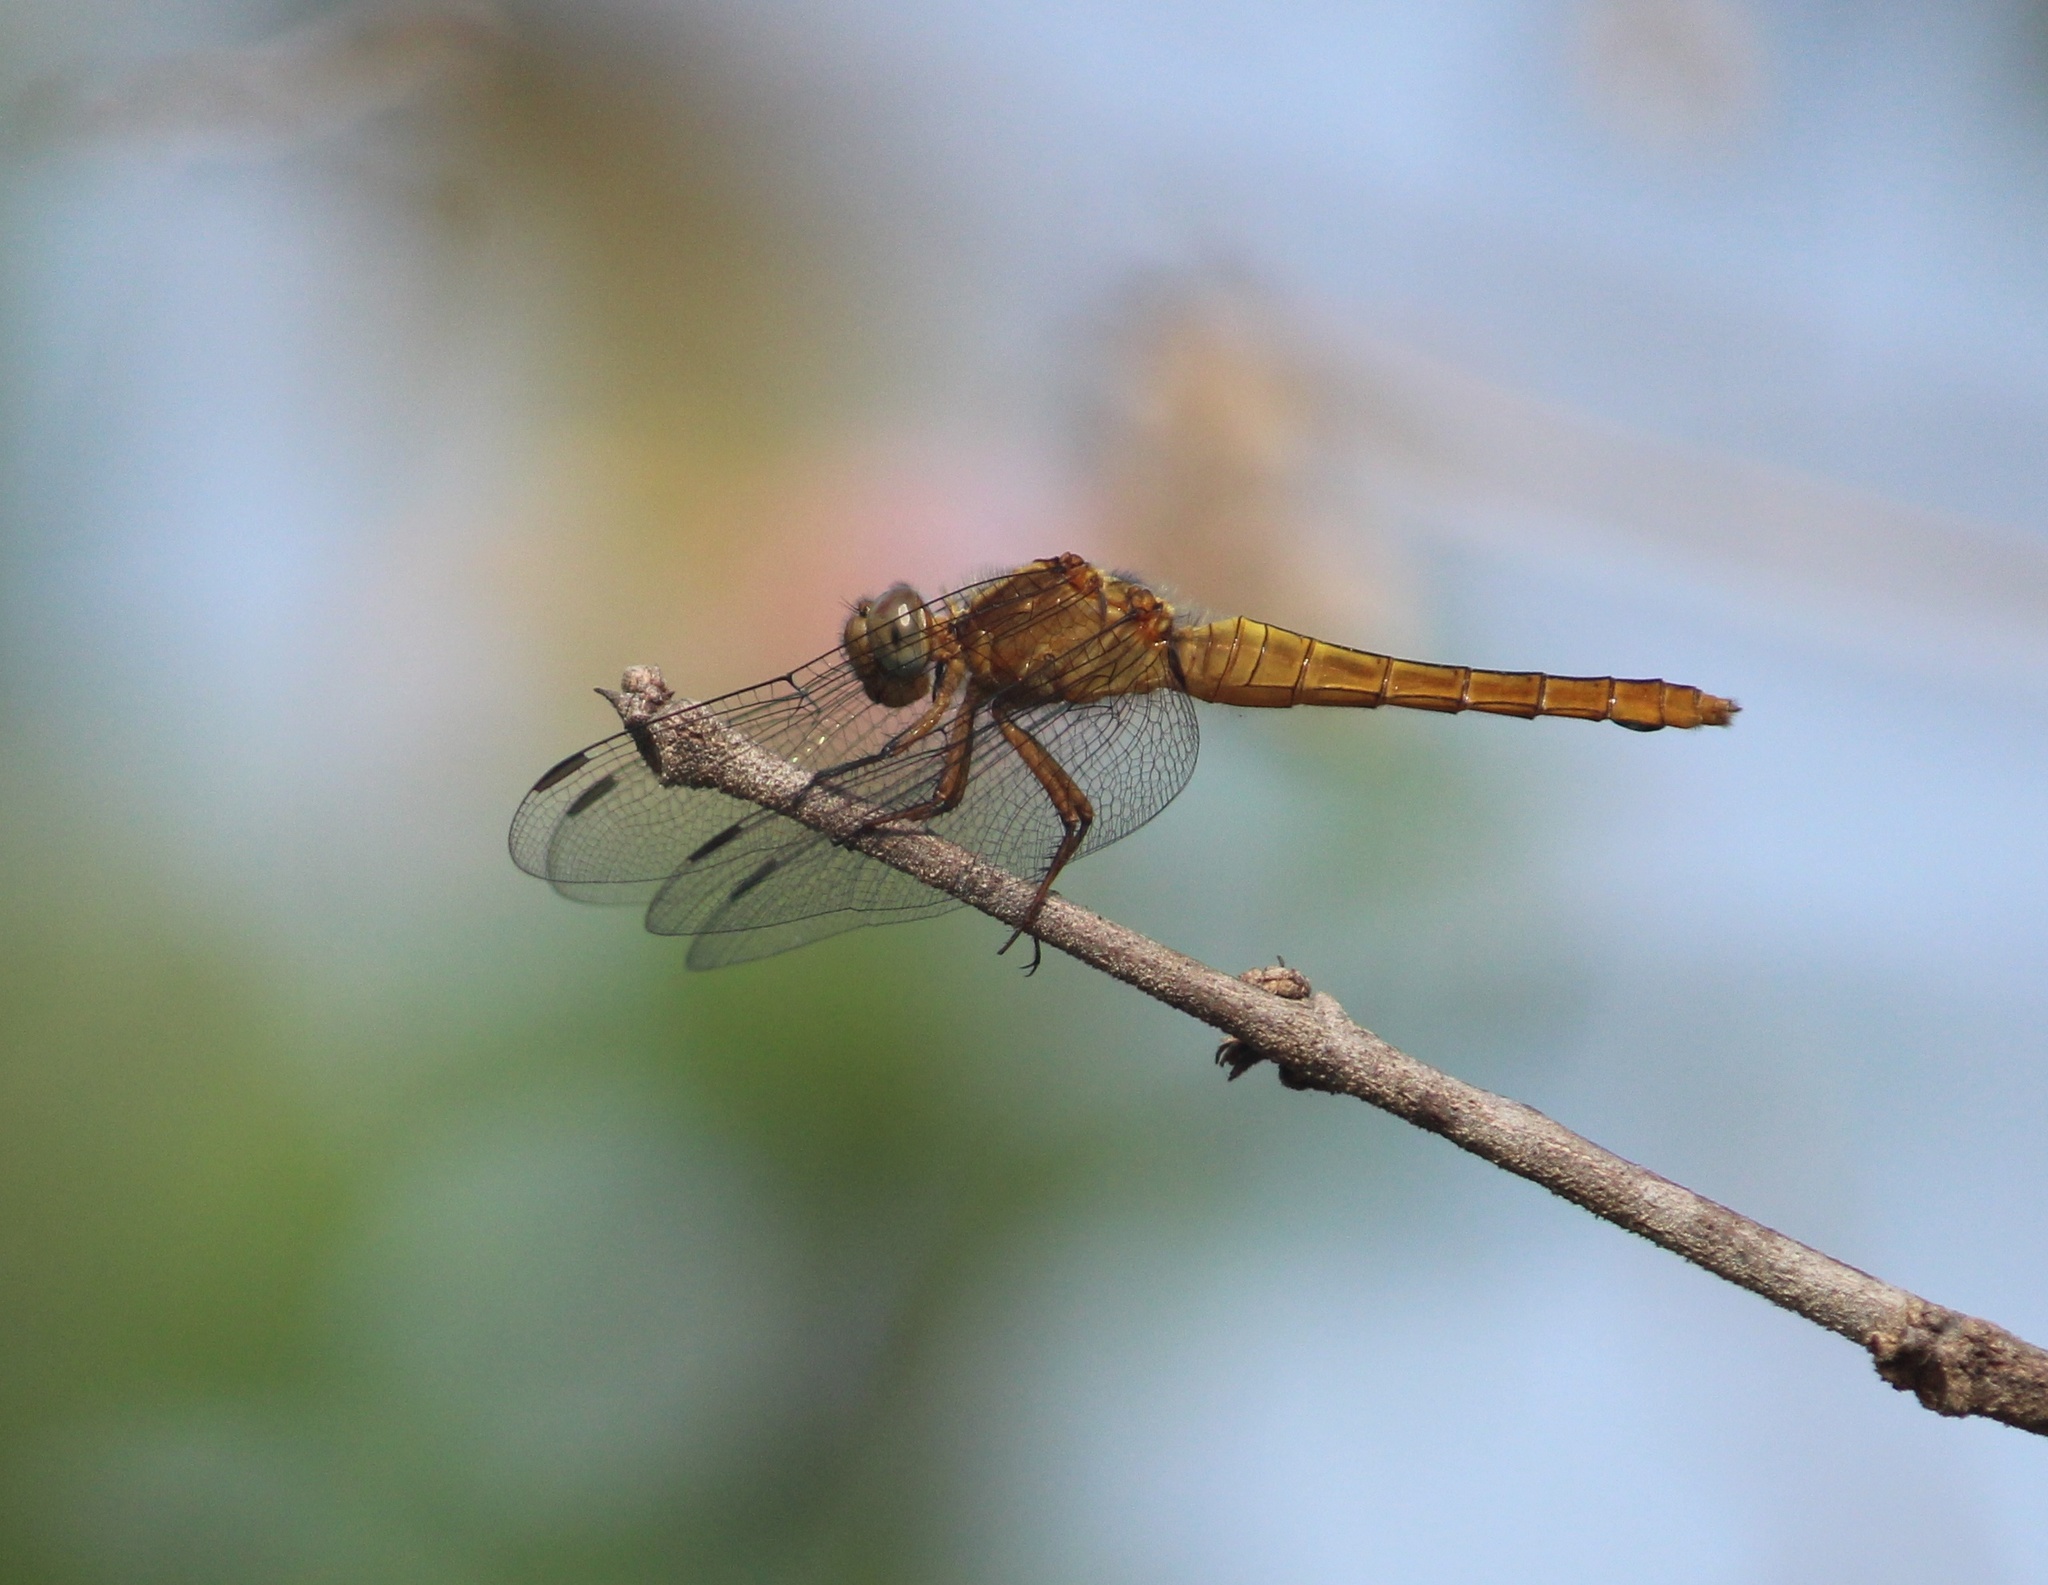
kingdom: Animalia
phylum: Arthropoda
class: Insecta
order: Odonata
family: Libellulidae
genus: Orthetrum
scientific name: Orthetrum pruinosum
